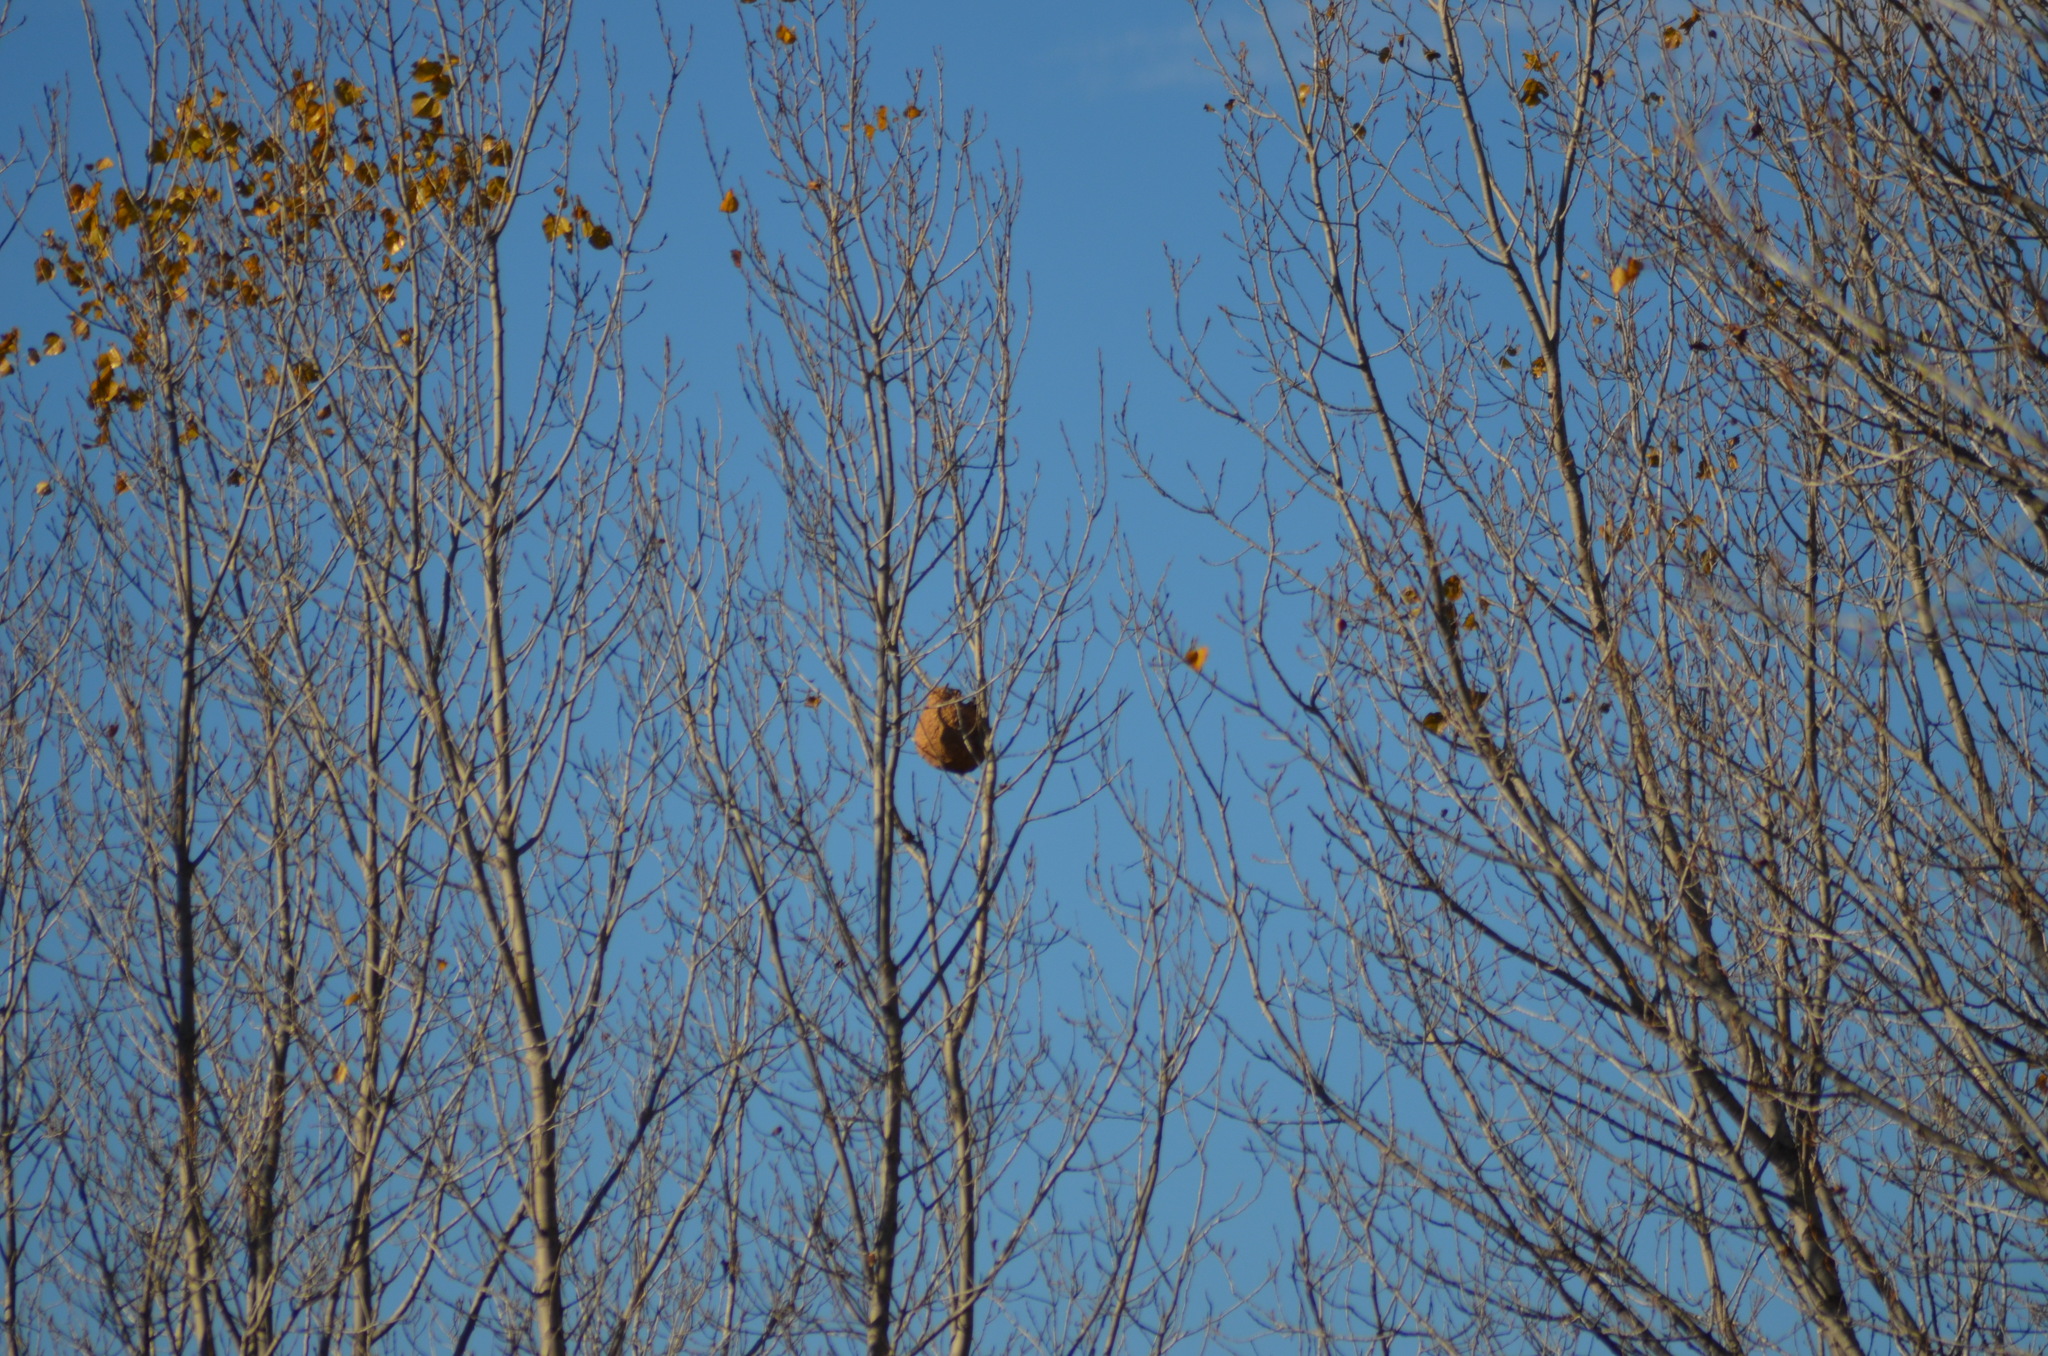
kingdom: Animalia
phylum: Arthropoda
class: Insecta
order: Hymenoptera
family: Vespidae
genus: Vespa
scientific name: Vespa velutina
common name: Asian hornet
